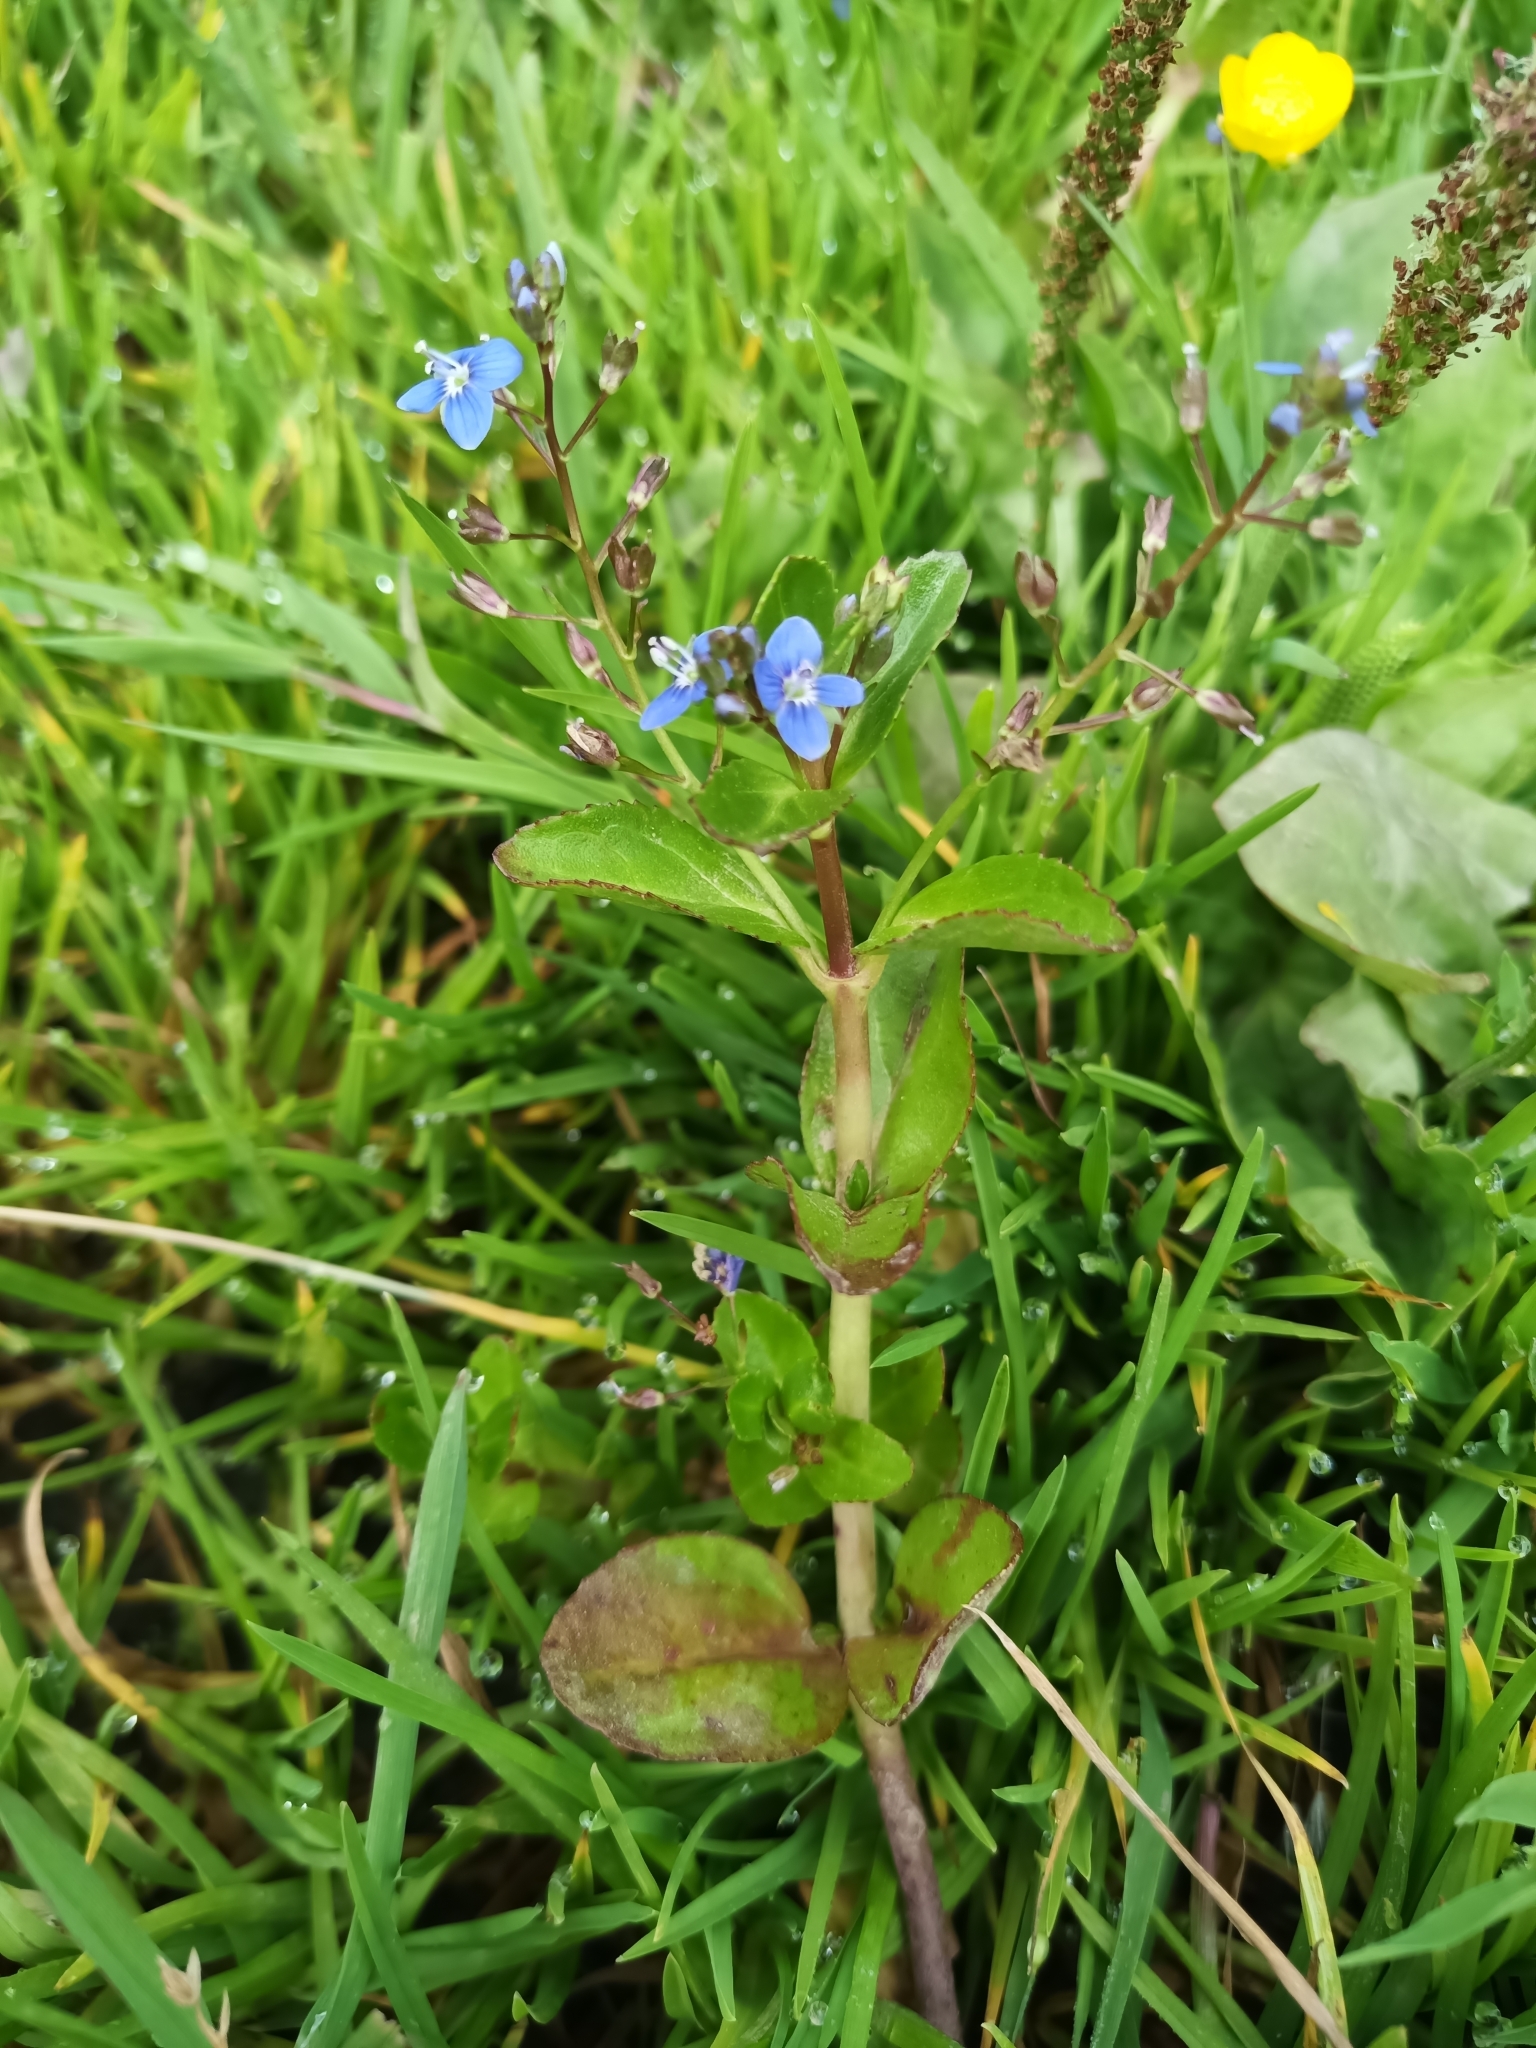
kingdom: Plantae
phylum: Tracheophyta
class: Magnoliopsida
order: Lamiales
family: Plantaginaceae
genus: Veronica
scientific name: Veronica beccabunga
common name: Brooklime
